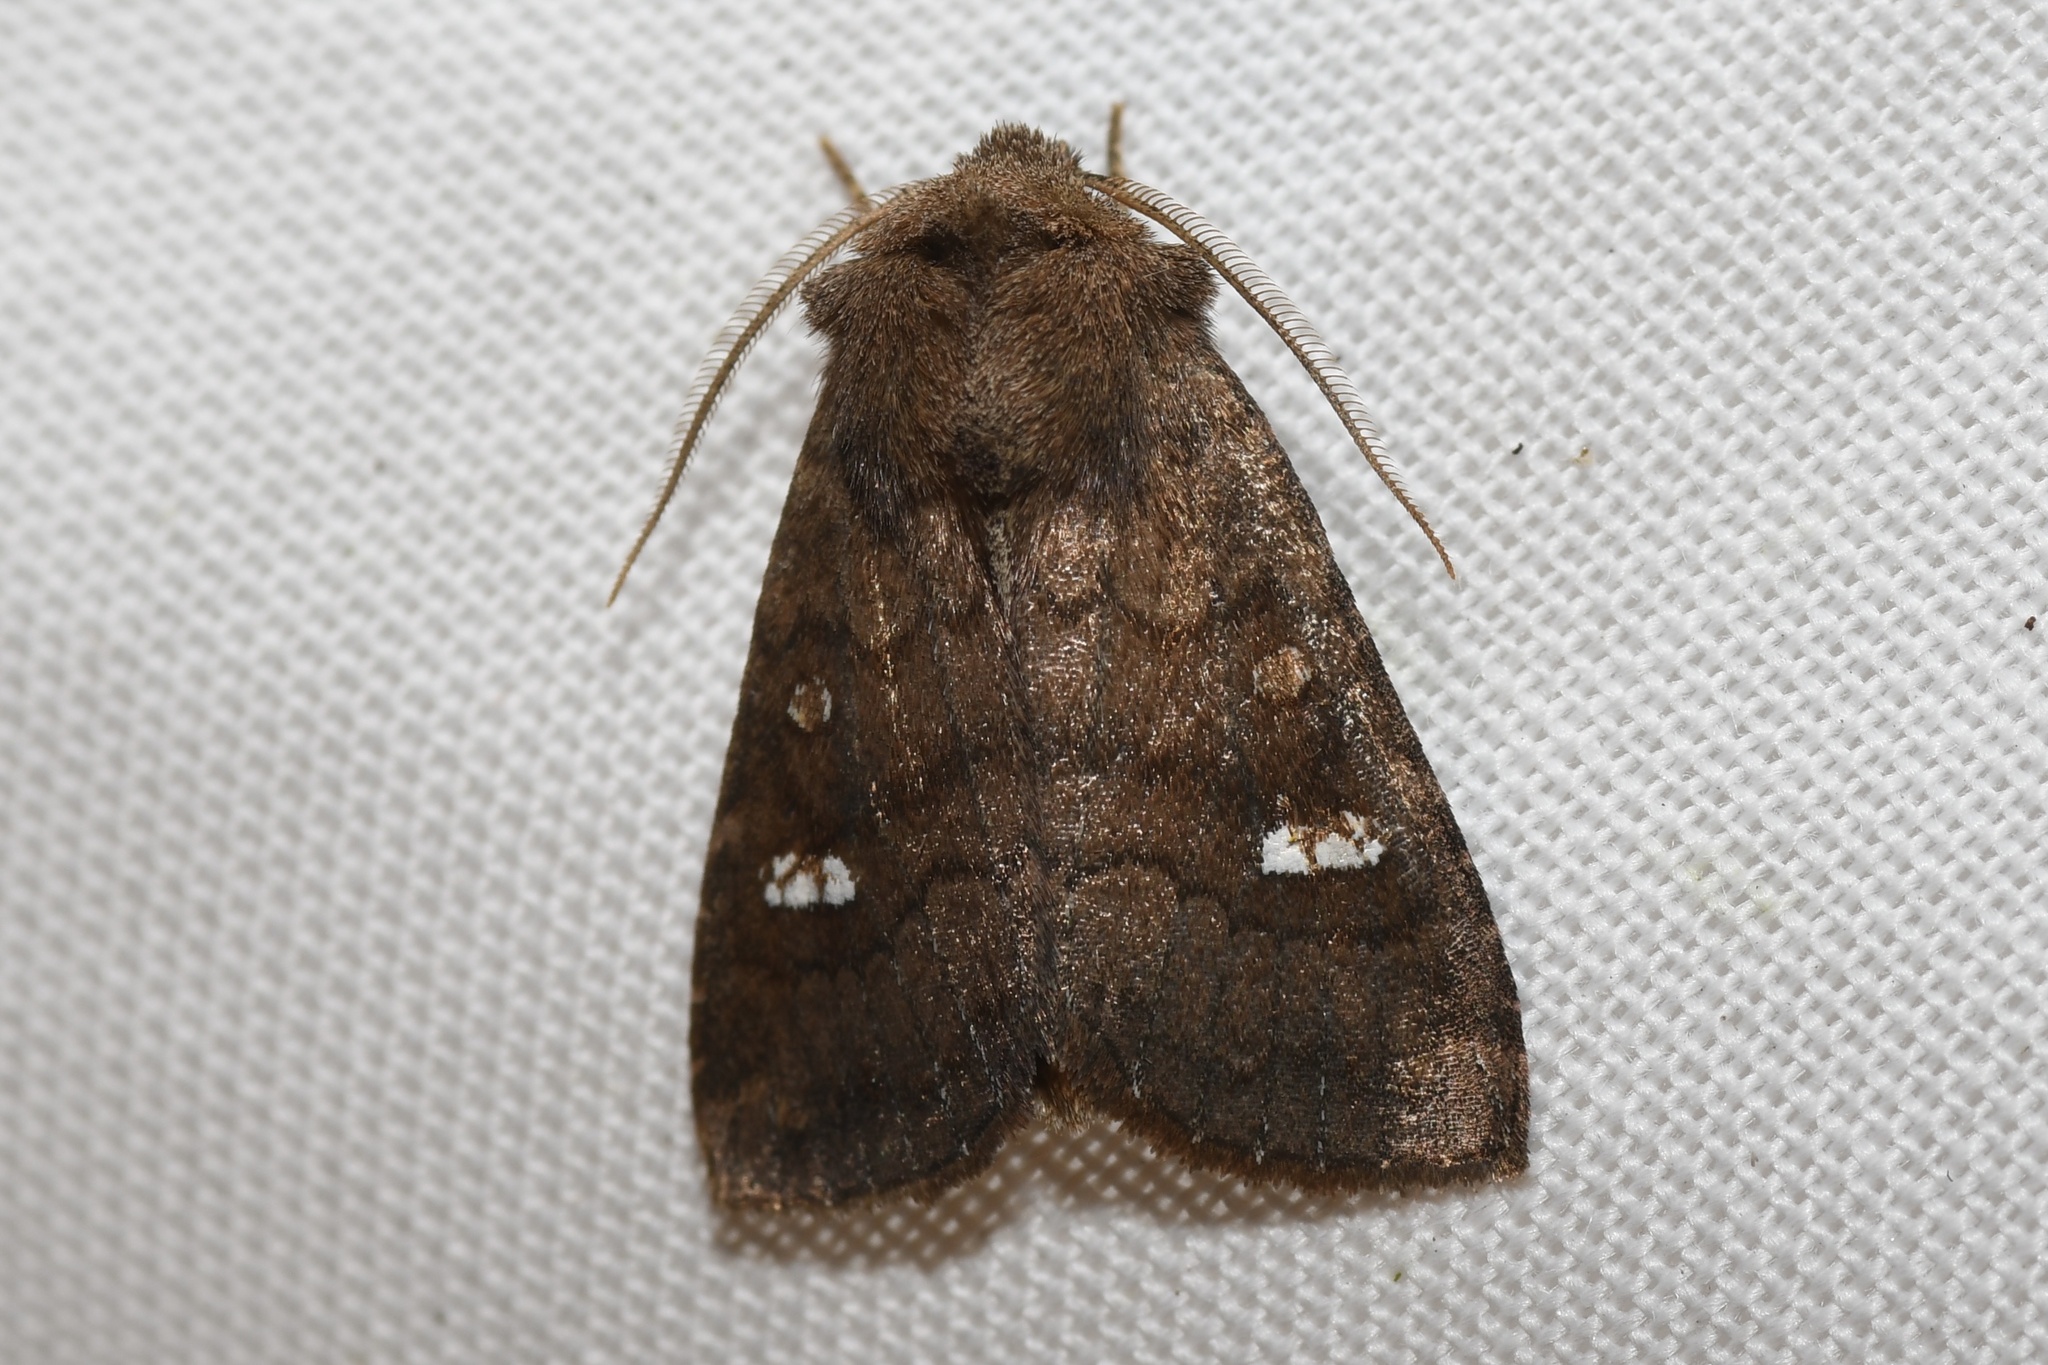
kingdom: Animalia
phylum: Arthropoda
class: Insecta
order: Lepidoptera
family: Noctuidae
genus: Tricholita
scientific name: Tricholita signata
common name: Signate quaker
